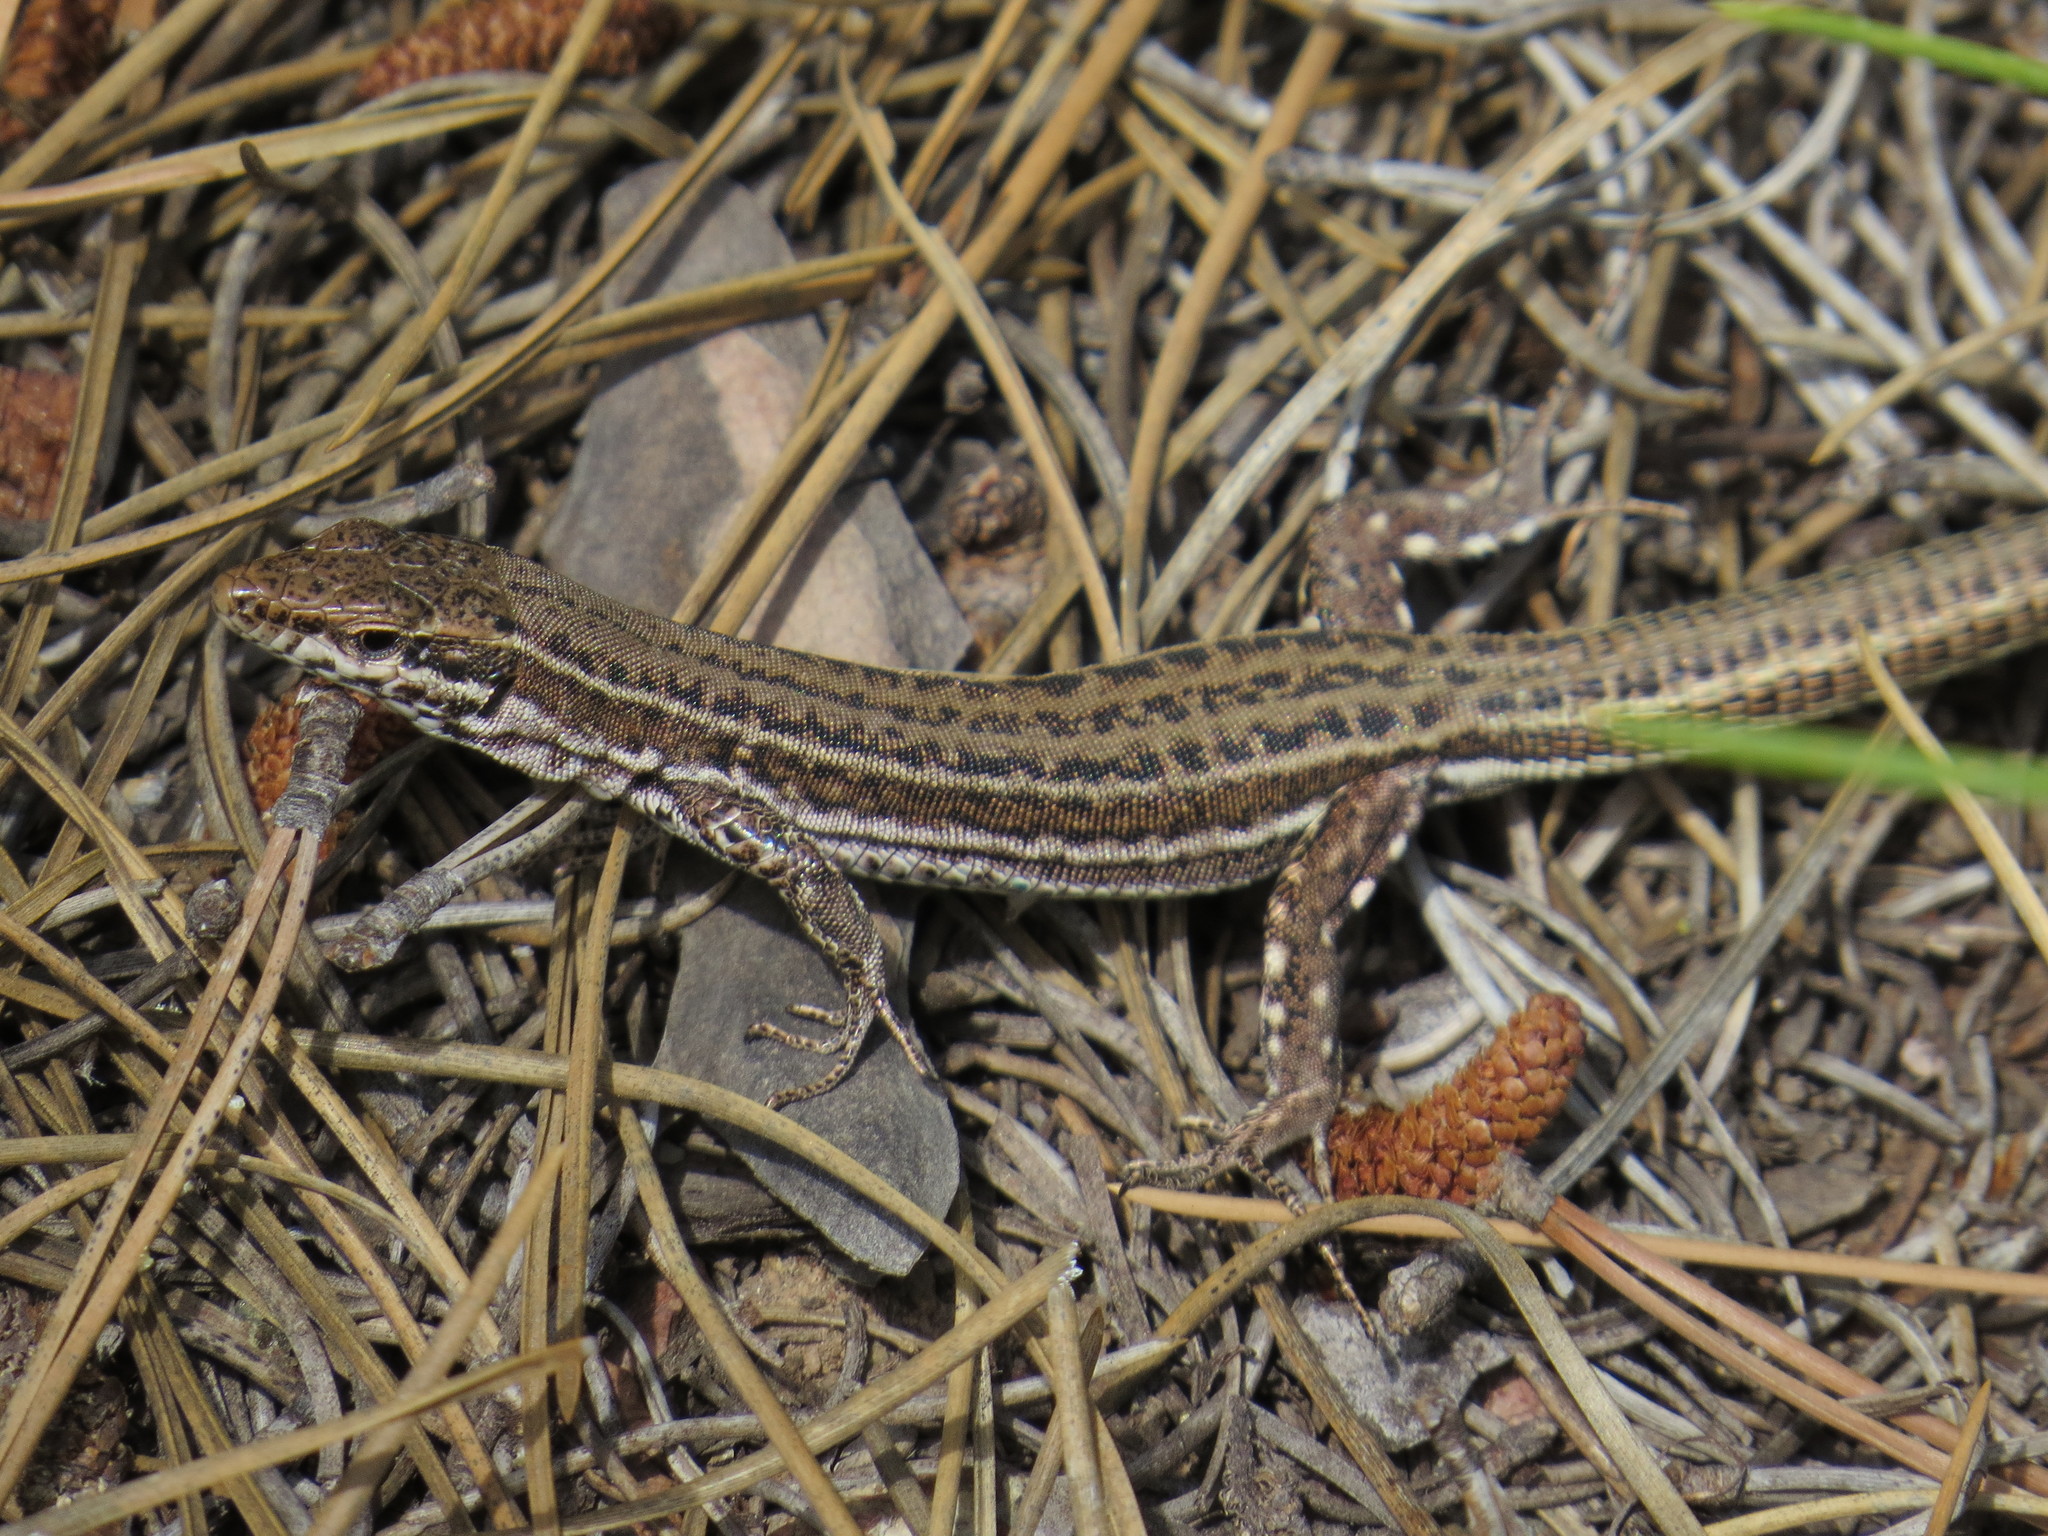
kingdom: Animalia
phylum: Chordata
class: Squamata
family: Lacertidae
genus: Podarcis
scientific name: Podarcis tiliguerta
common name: Tyrrhenian wall lizard
